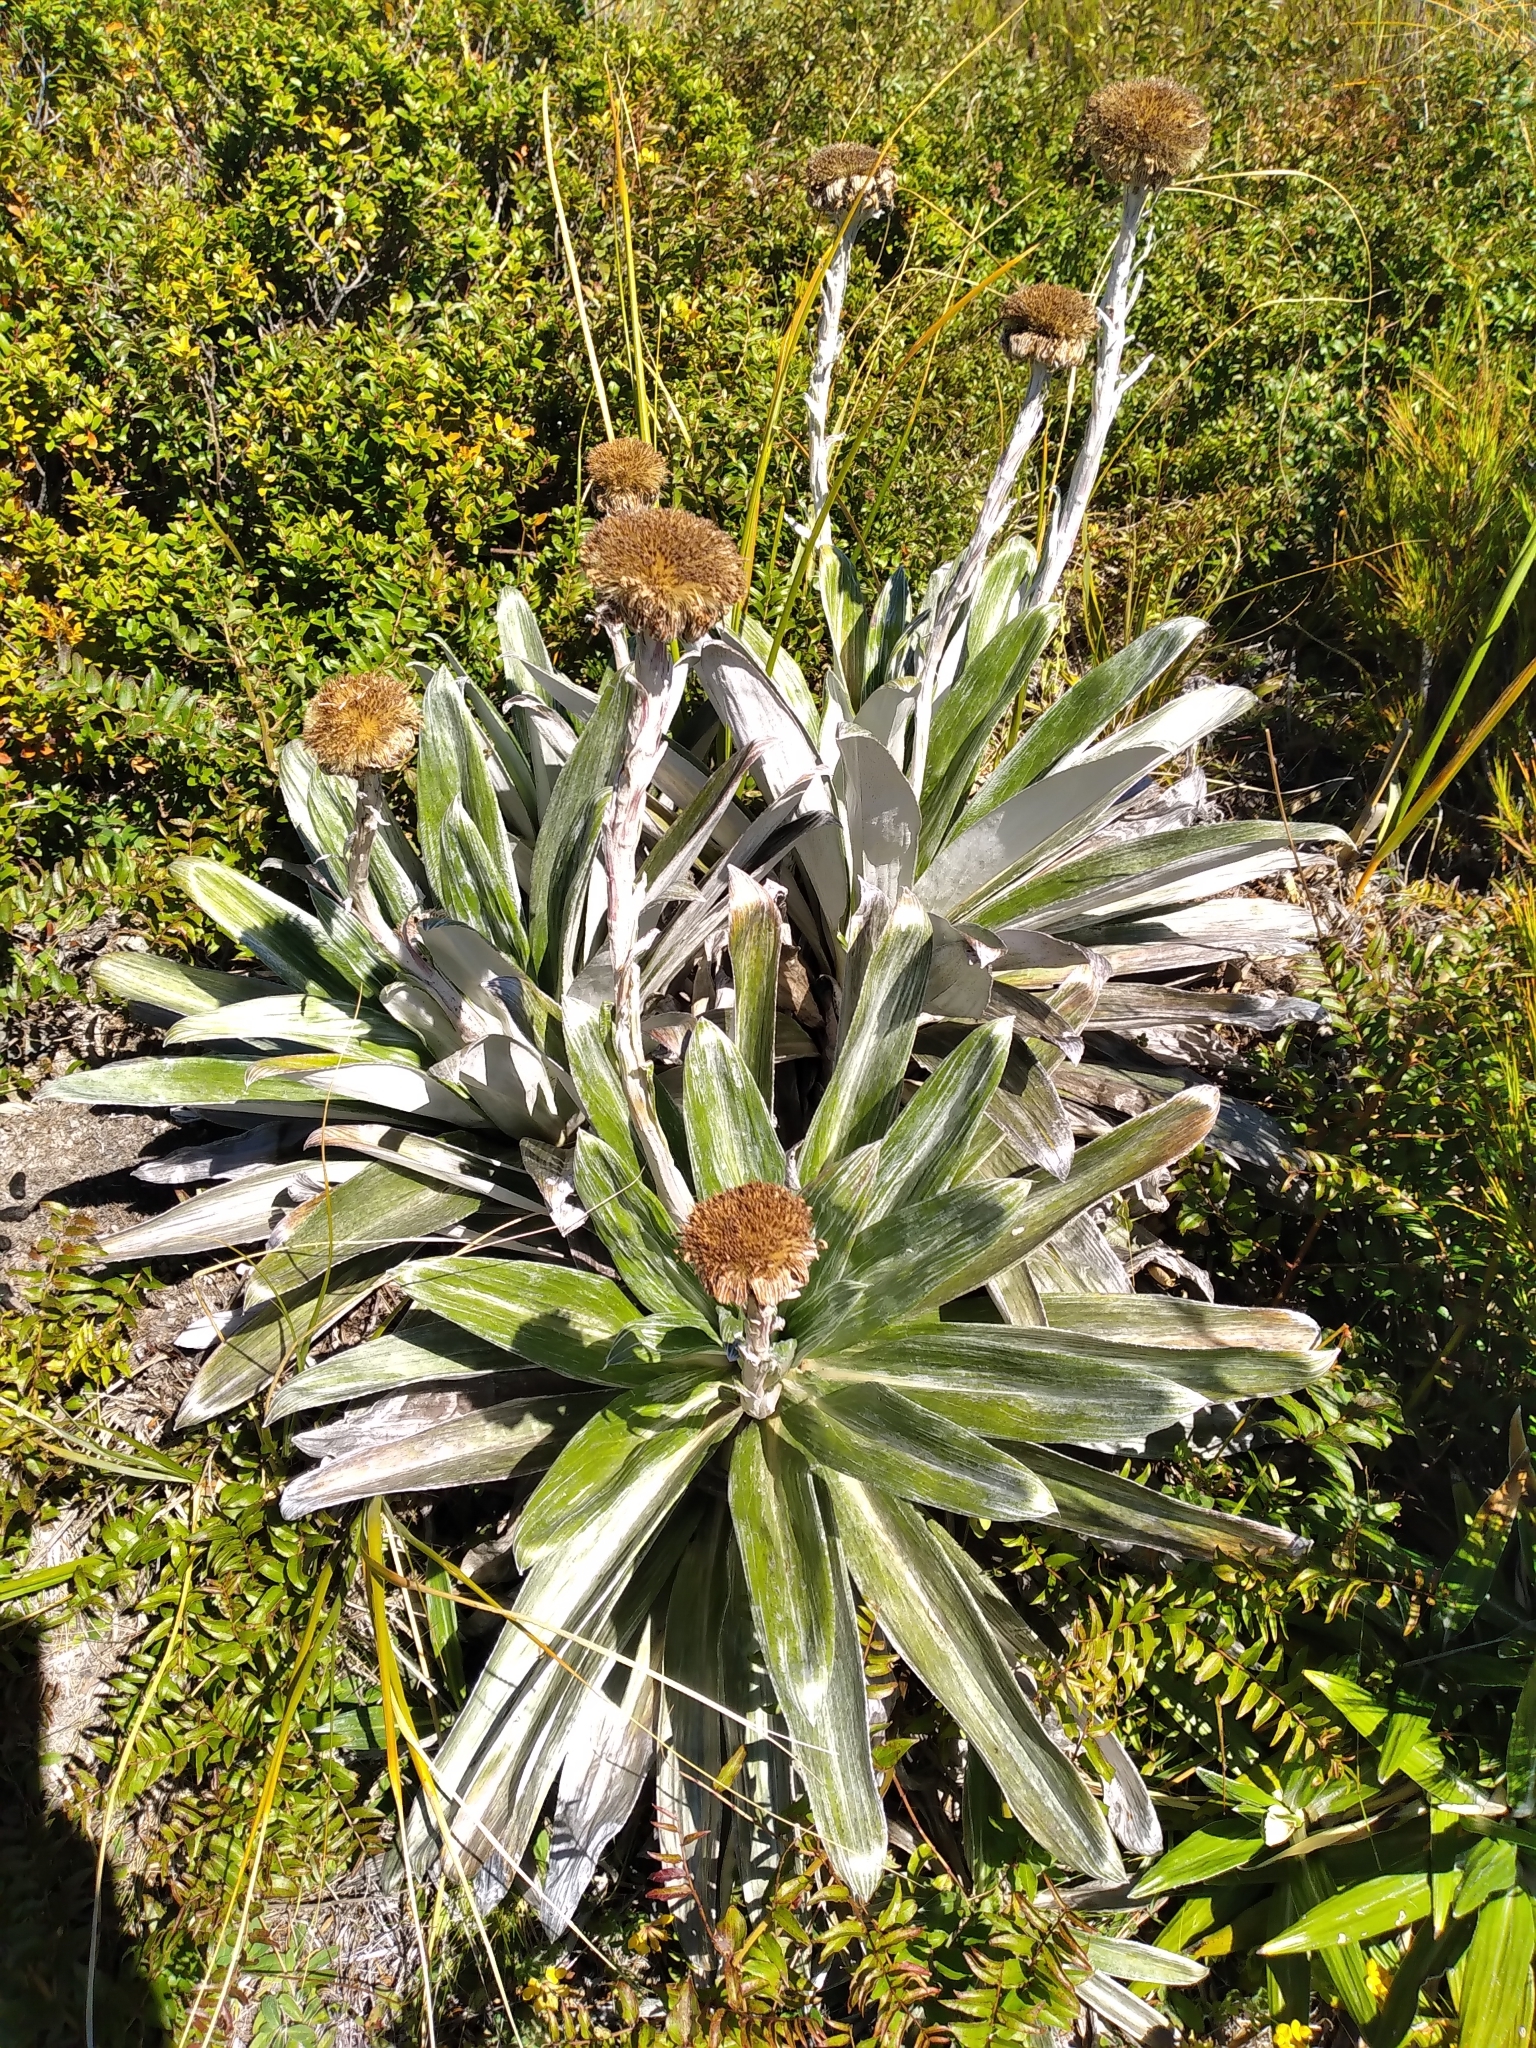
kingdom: Plantae
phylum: Tracheophyta
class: Magnoliopsida
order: Asterales
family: Asteraceae
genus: Celmisia
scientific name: Celmisia monroi
